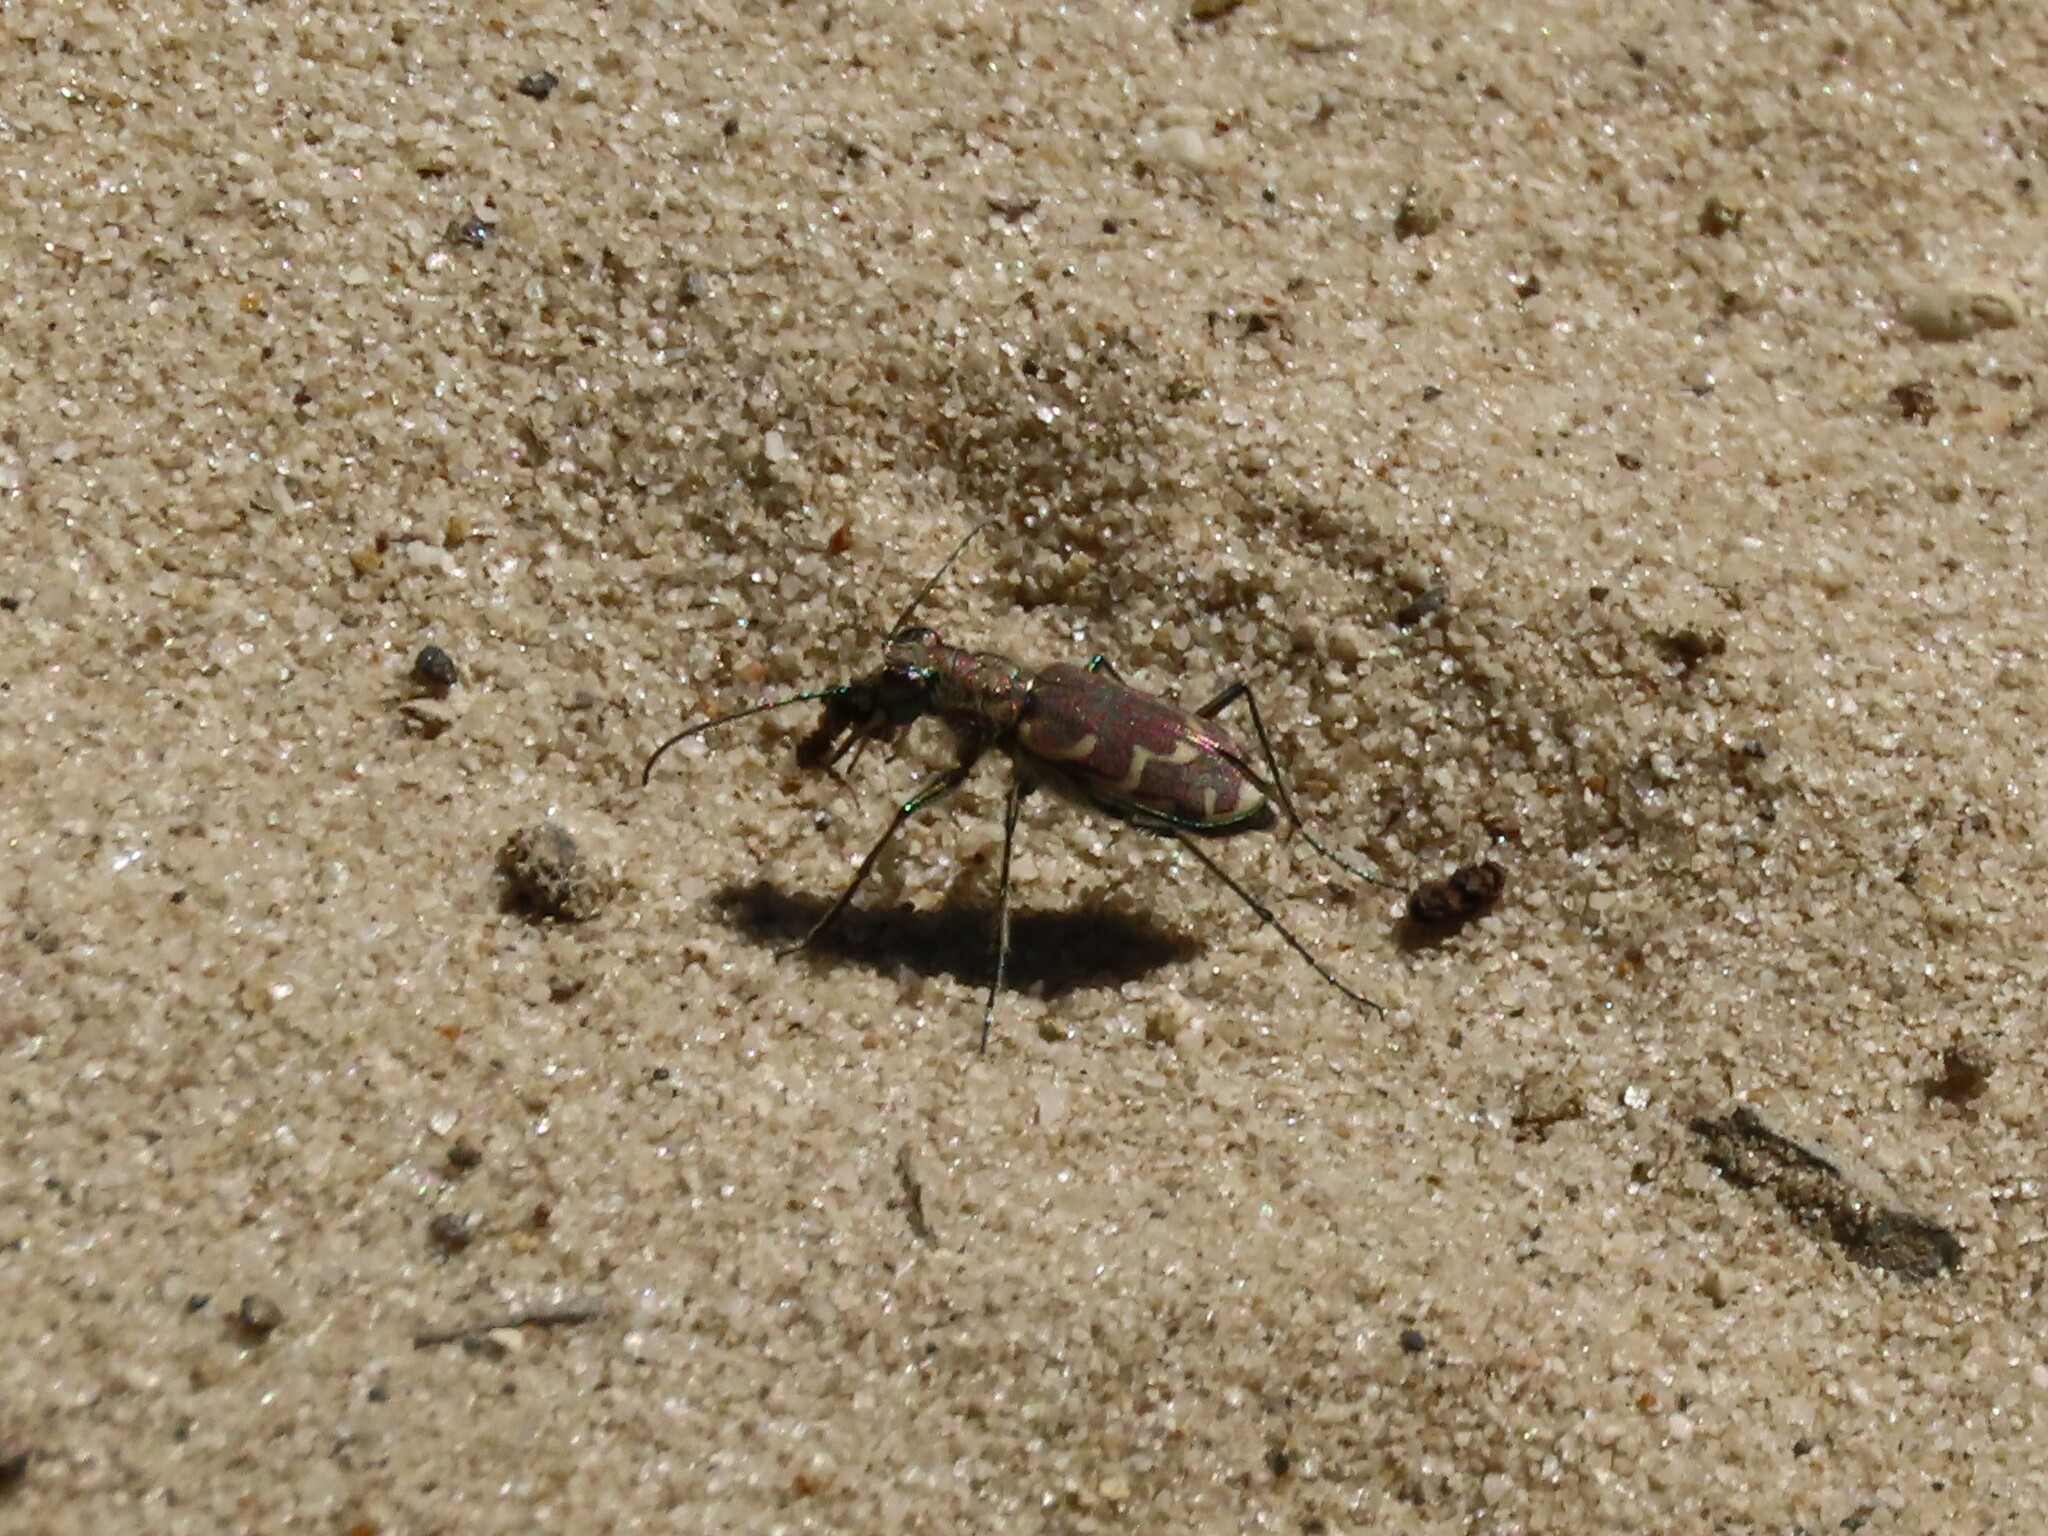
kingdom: Animalia
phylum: Arthropoda
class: Insecta
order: Coleoptera
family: Carabidae
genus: Cicindela
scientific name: Cicindela repanda
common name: Bronzed tiger beetle
